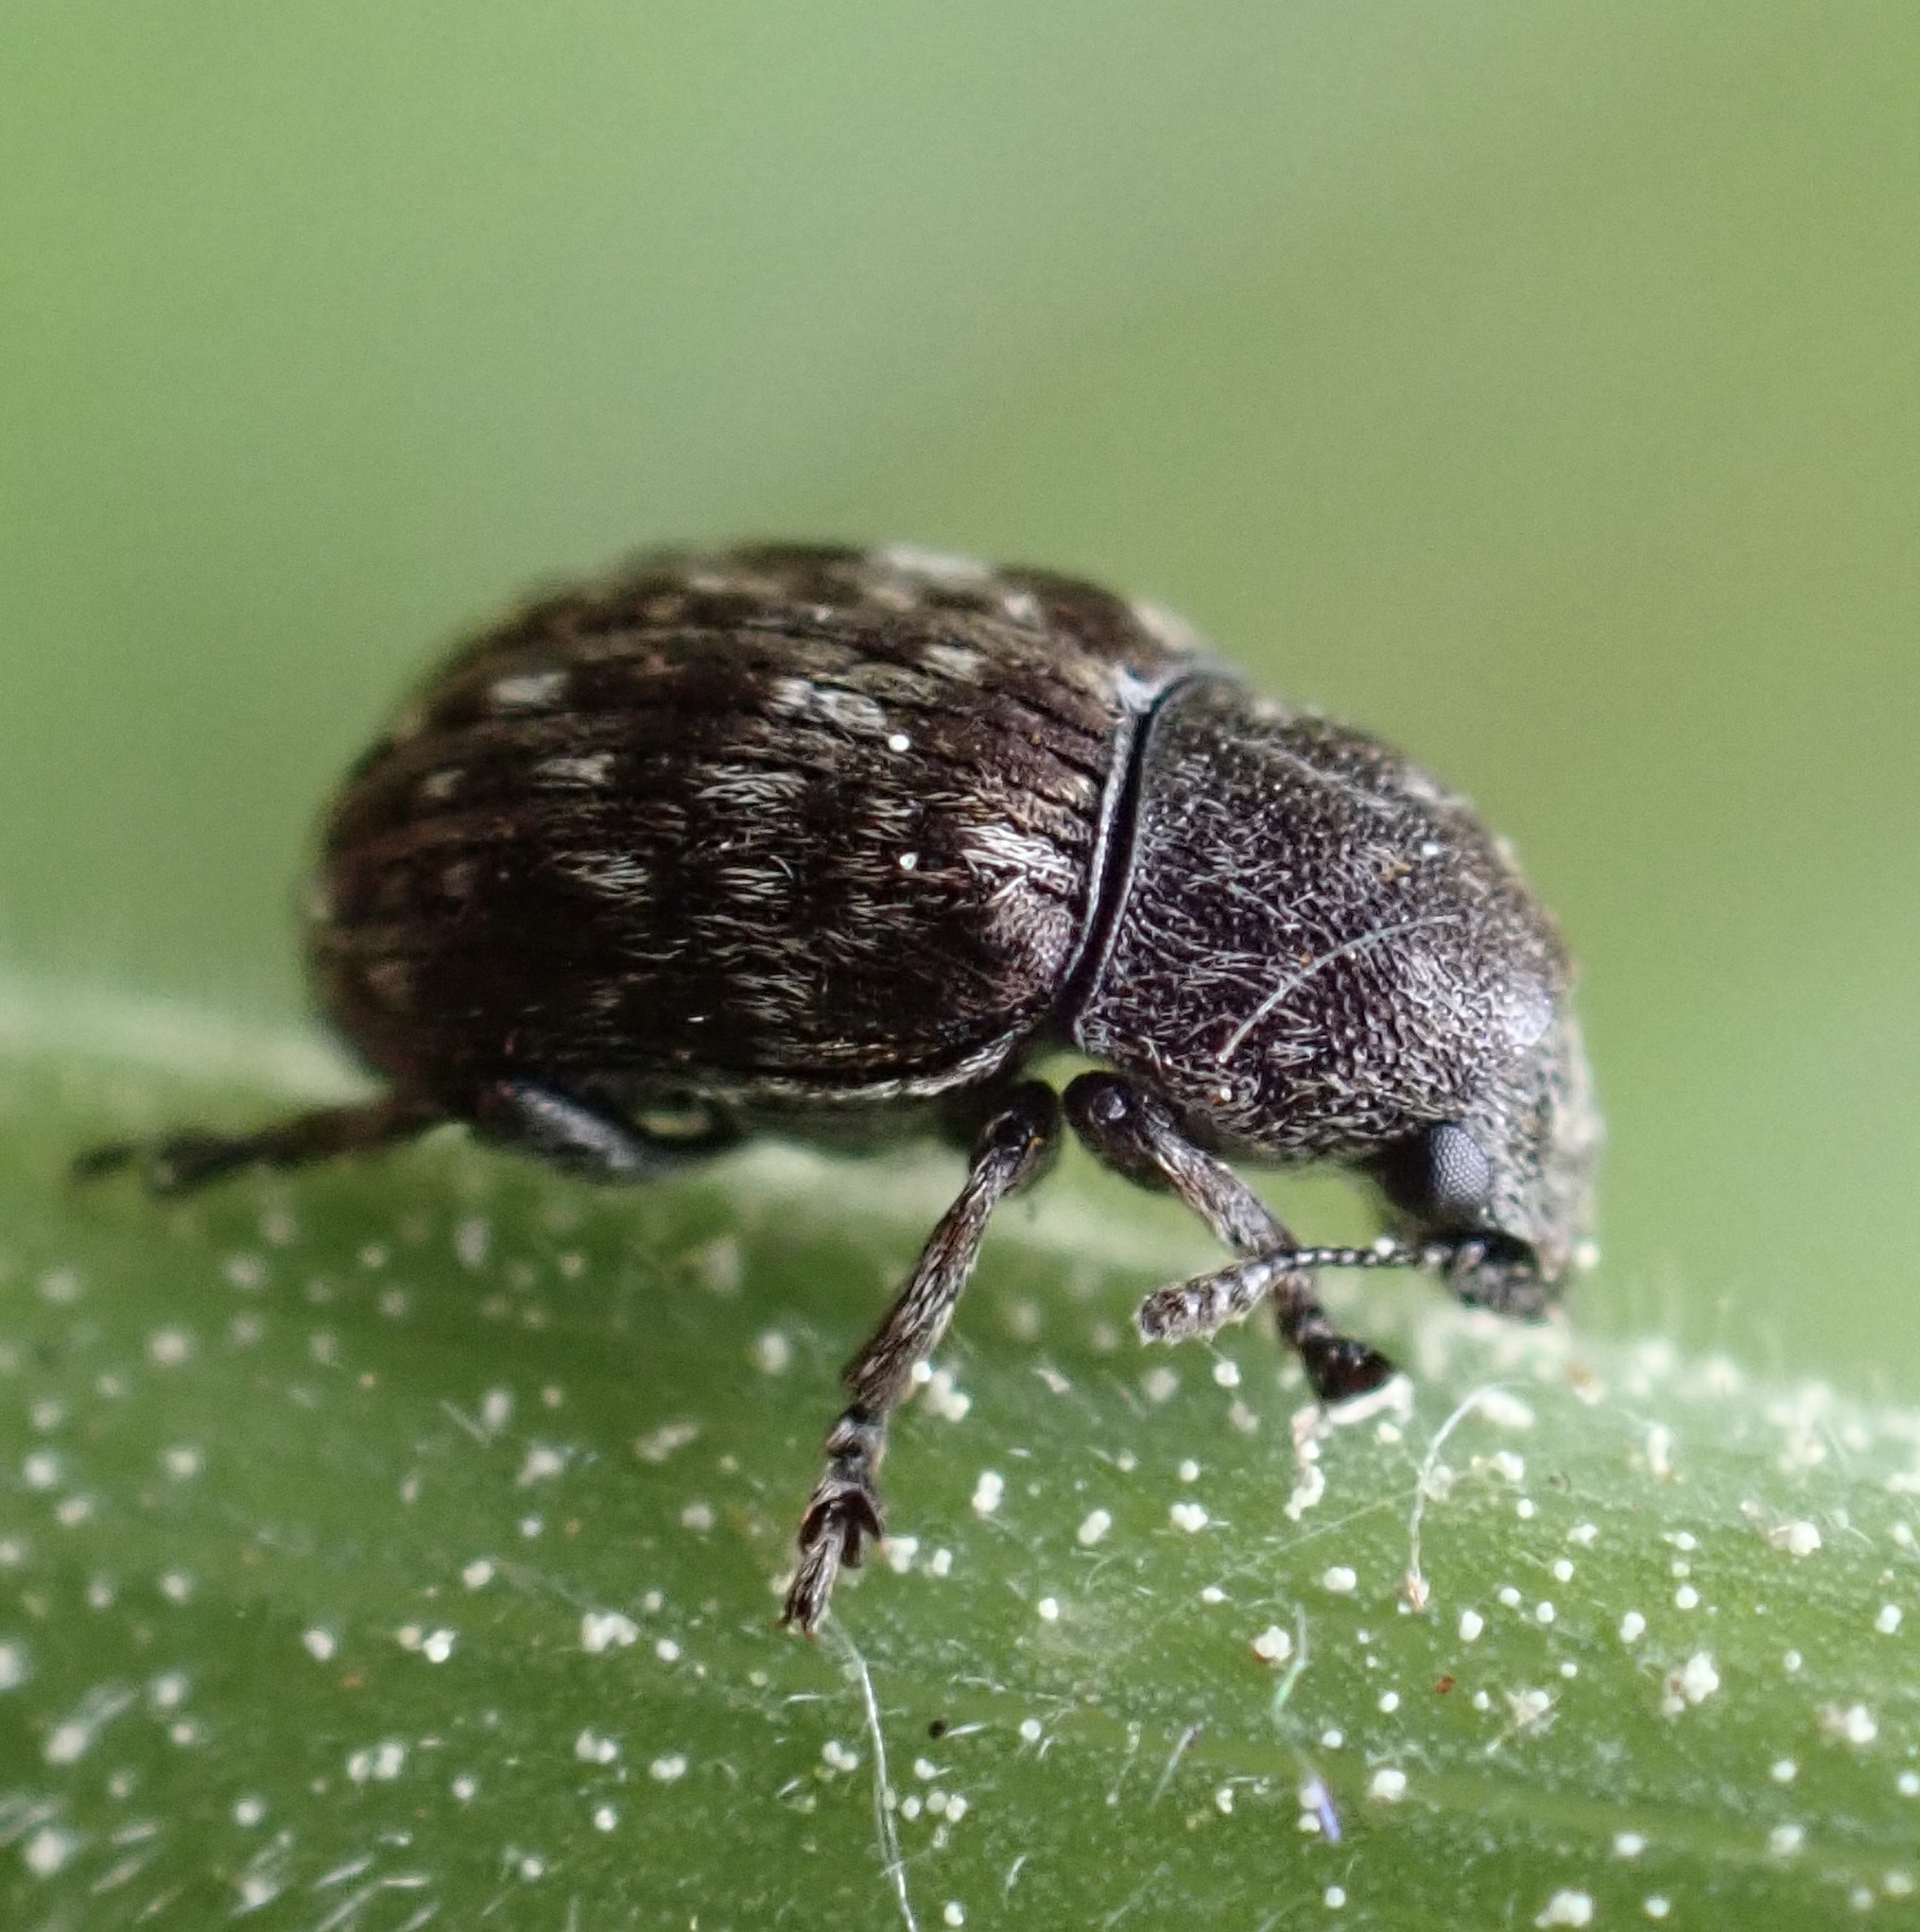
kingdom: Animalia
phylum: Arthropoda
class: Insecta
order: Coleoptera
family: Anthribidae
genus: Anthribus
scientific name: Anthribus nebulosus
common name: Fungus weevil
